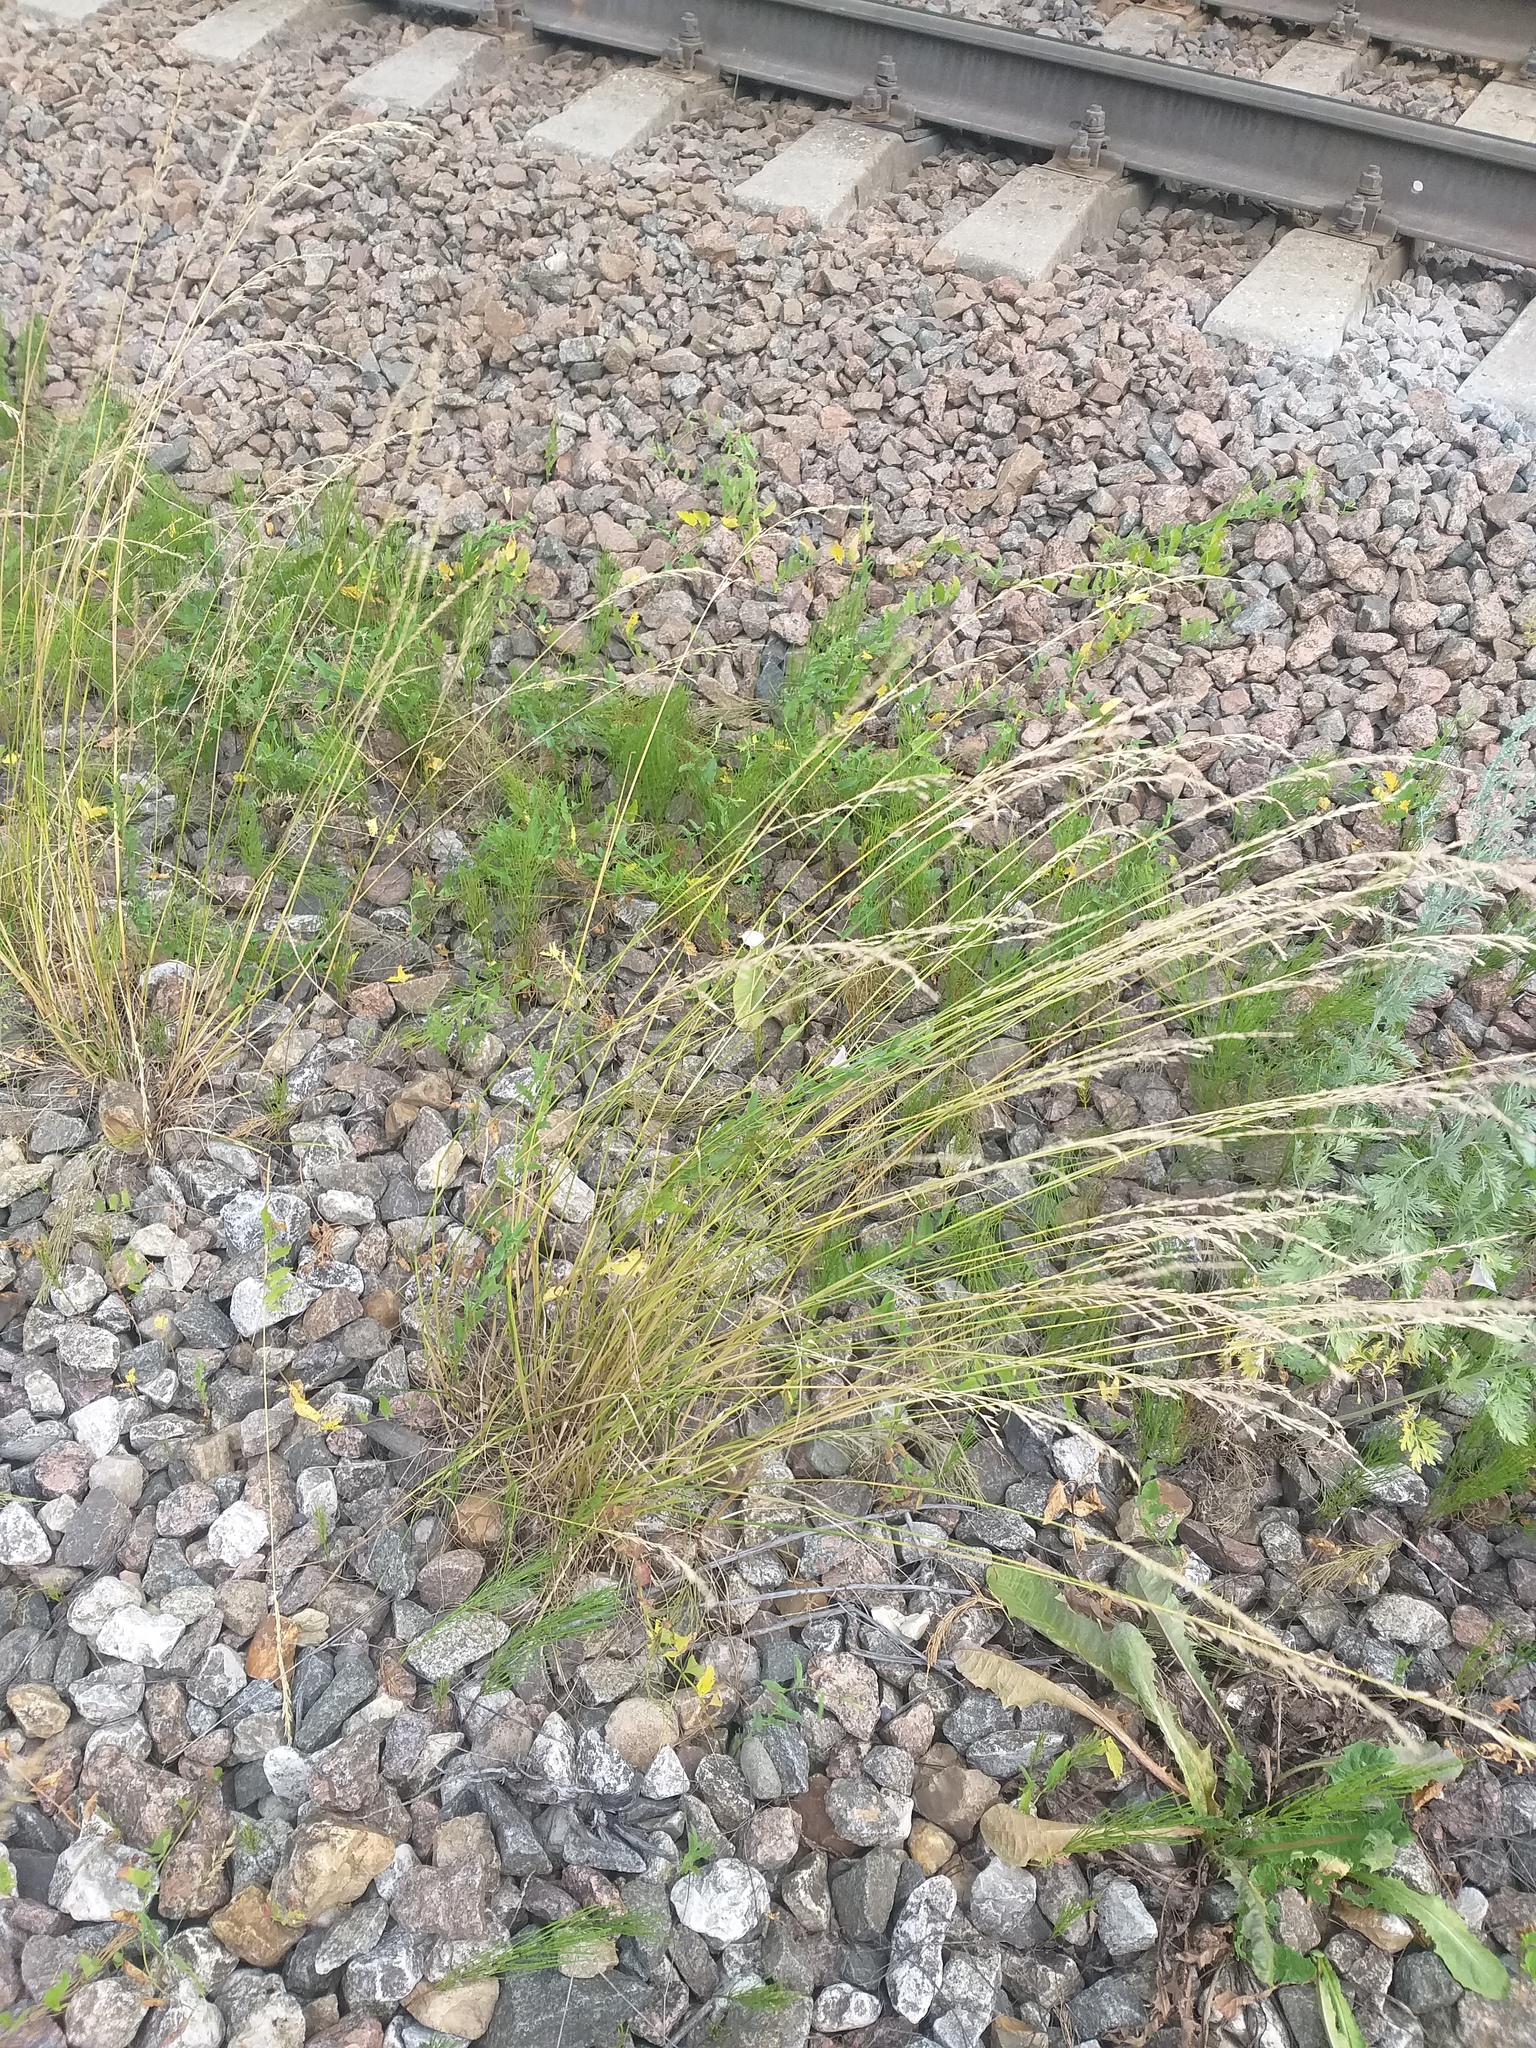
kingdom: Plantae
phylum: Tracheophyta
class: Liliopsida
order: Poales
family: Poaceae
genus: Arrhenatherum
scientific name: Arrhenatherum elatius
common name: Tall oatgrass
